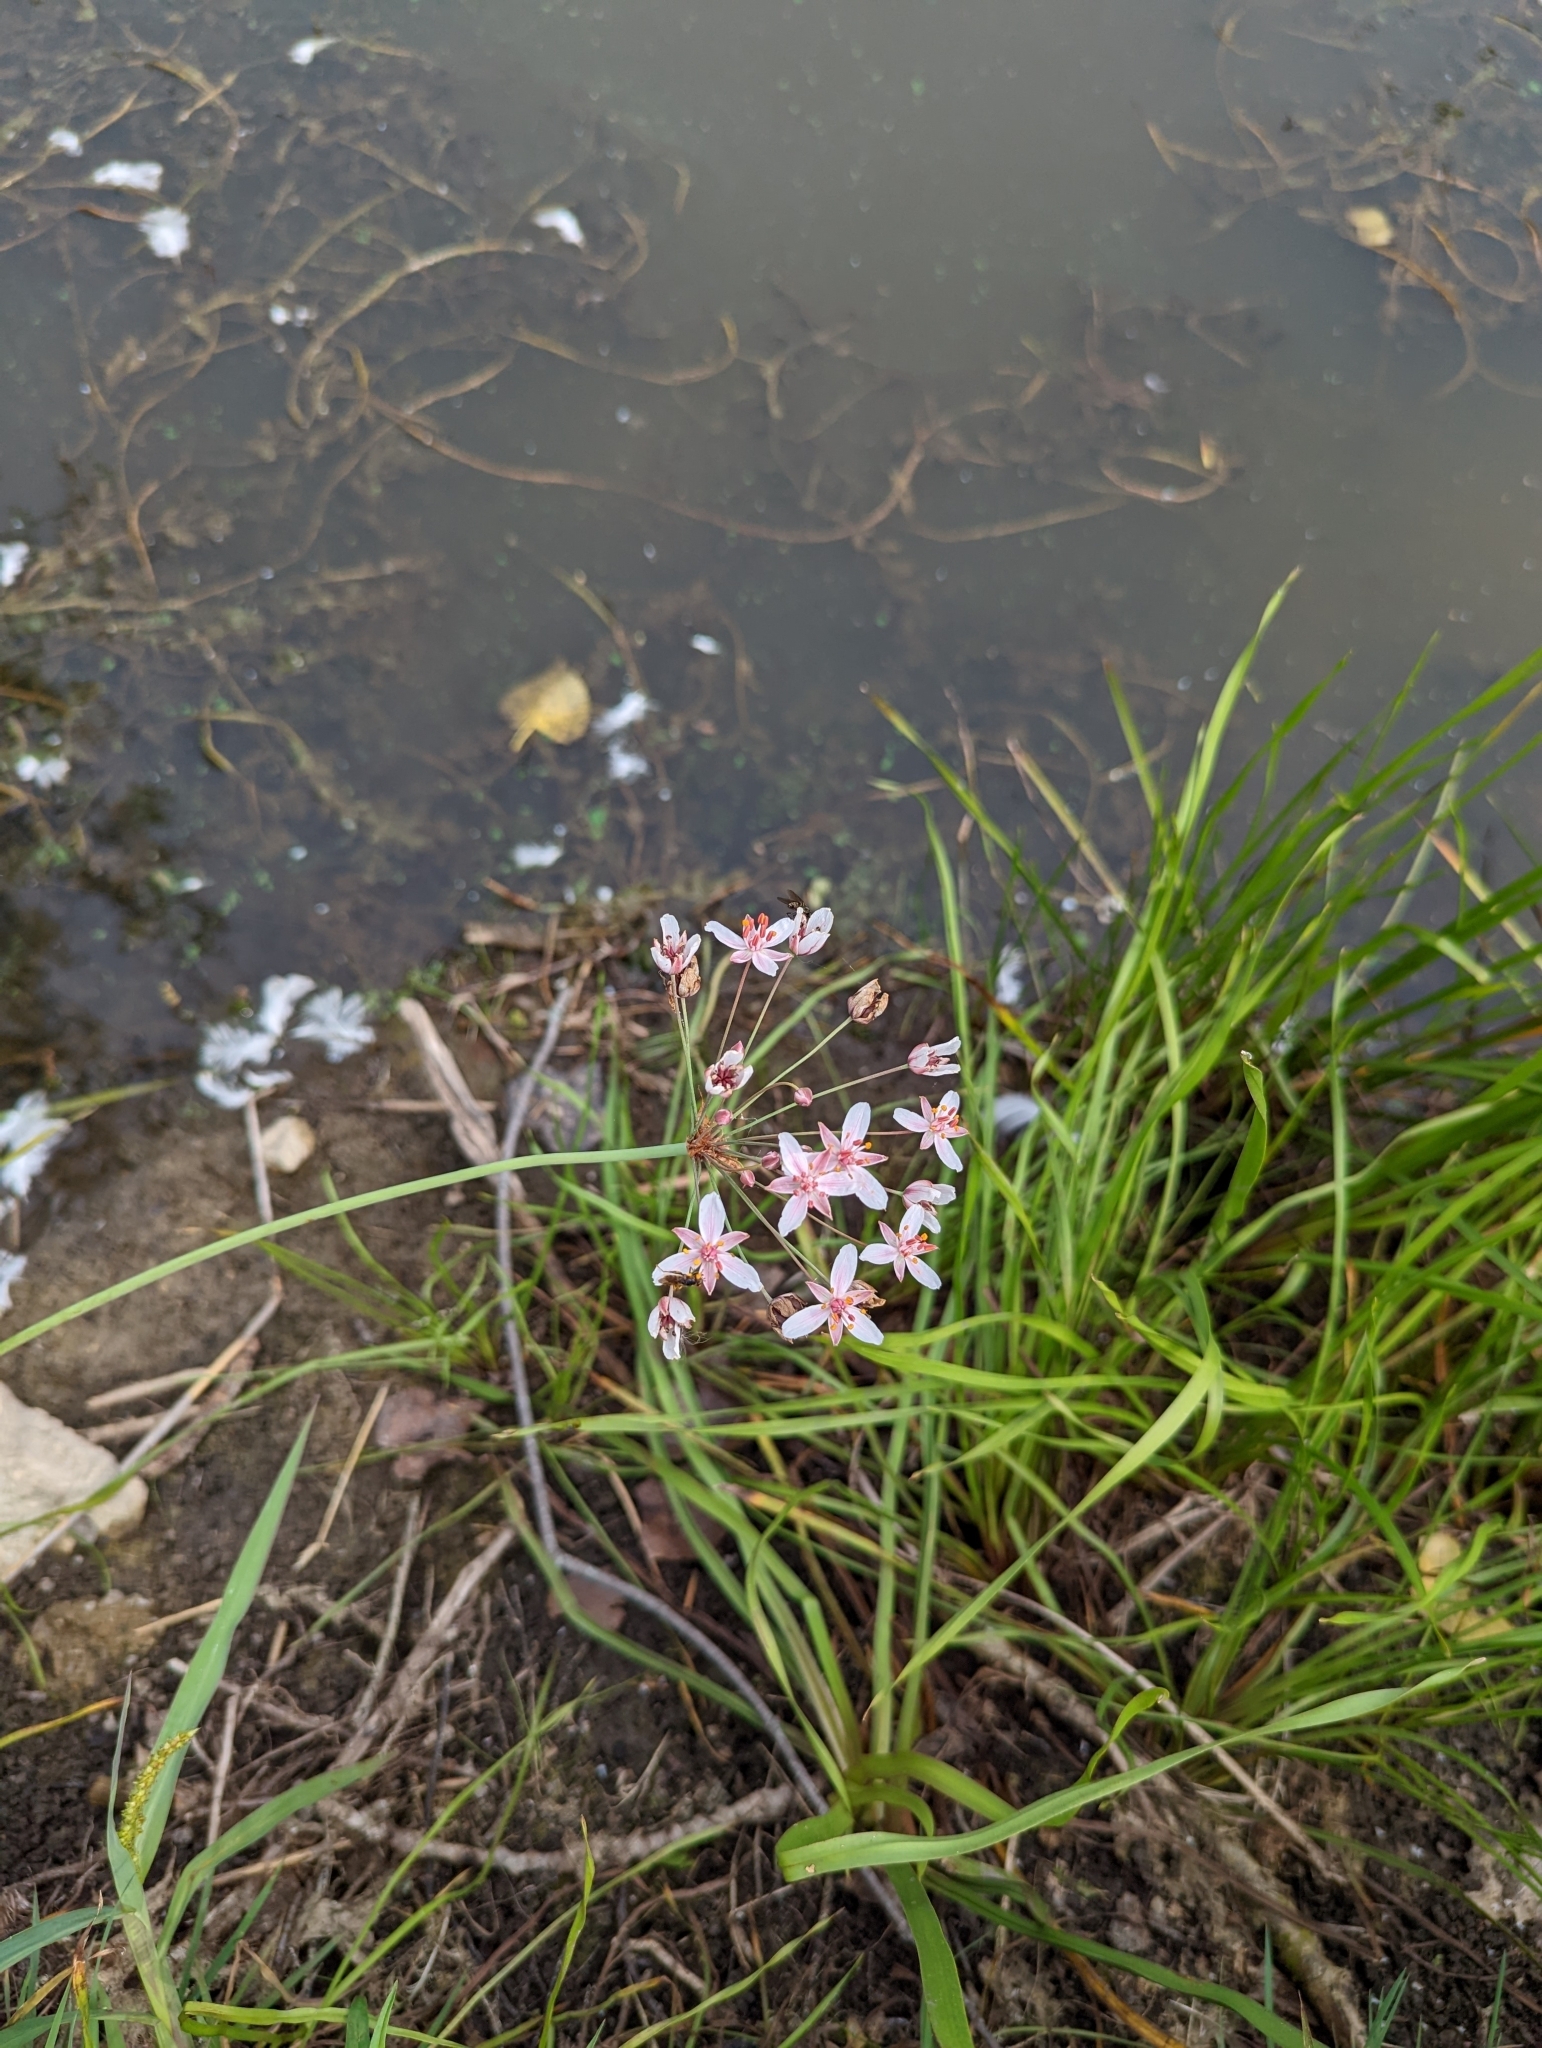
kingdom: Plantae
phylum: Tracheophyta
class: Liliopsida
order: Alismatales
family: Butomaceae
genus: Butomus
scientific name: Butomus umbellatus
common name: Flowering-rush
